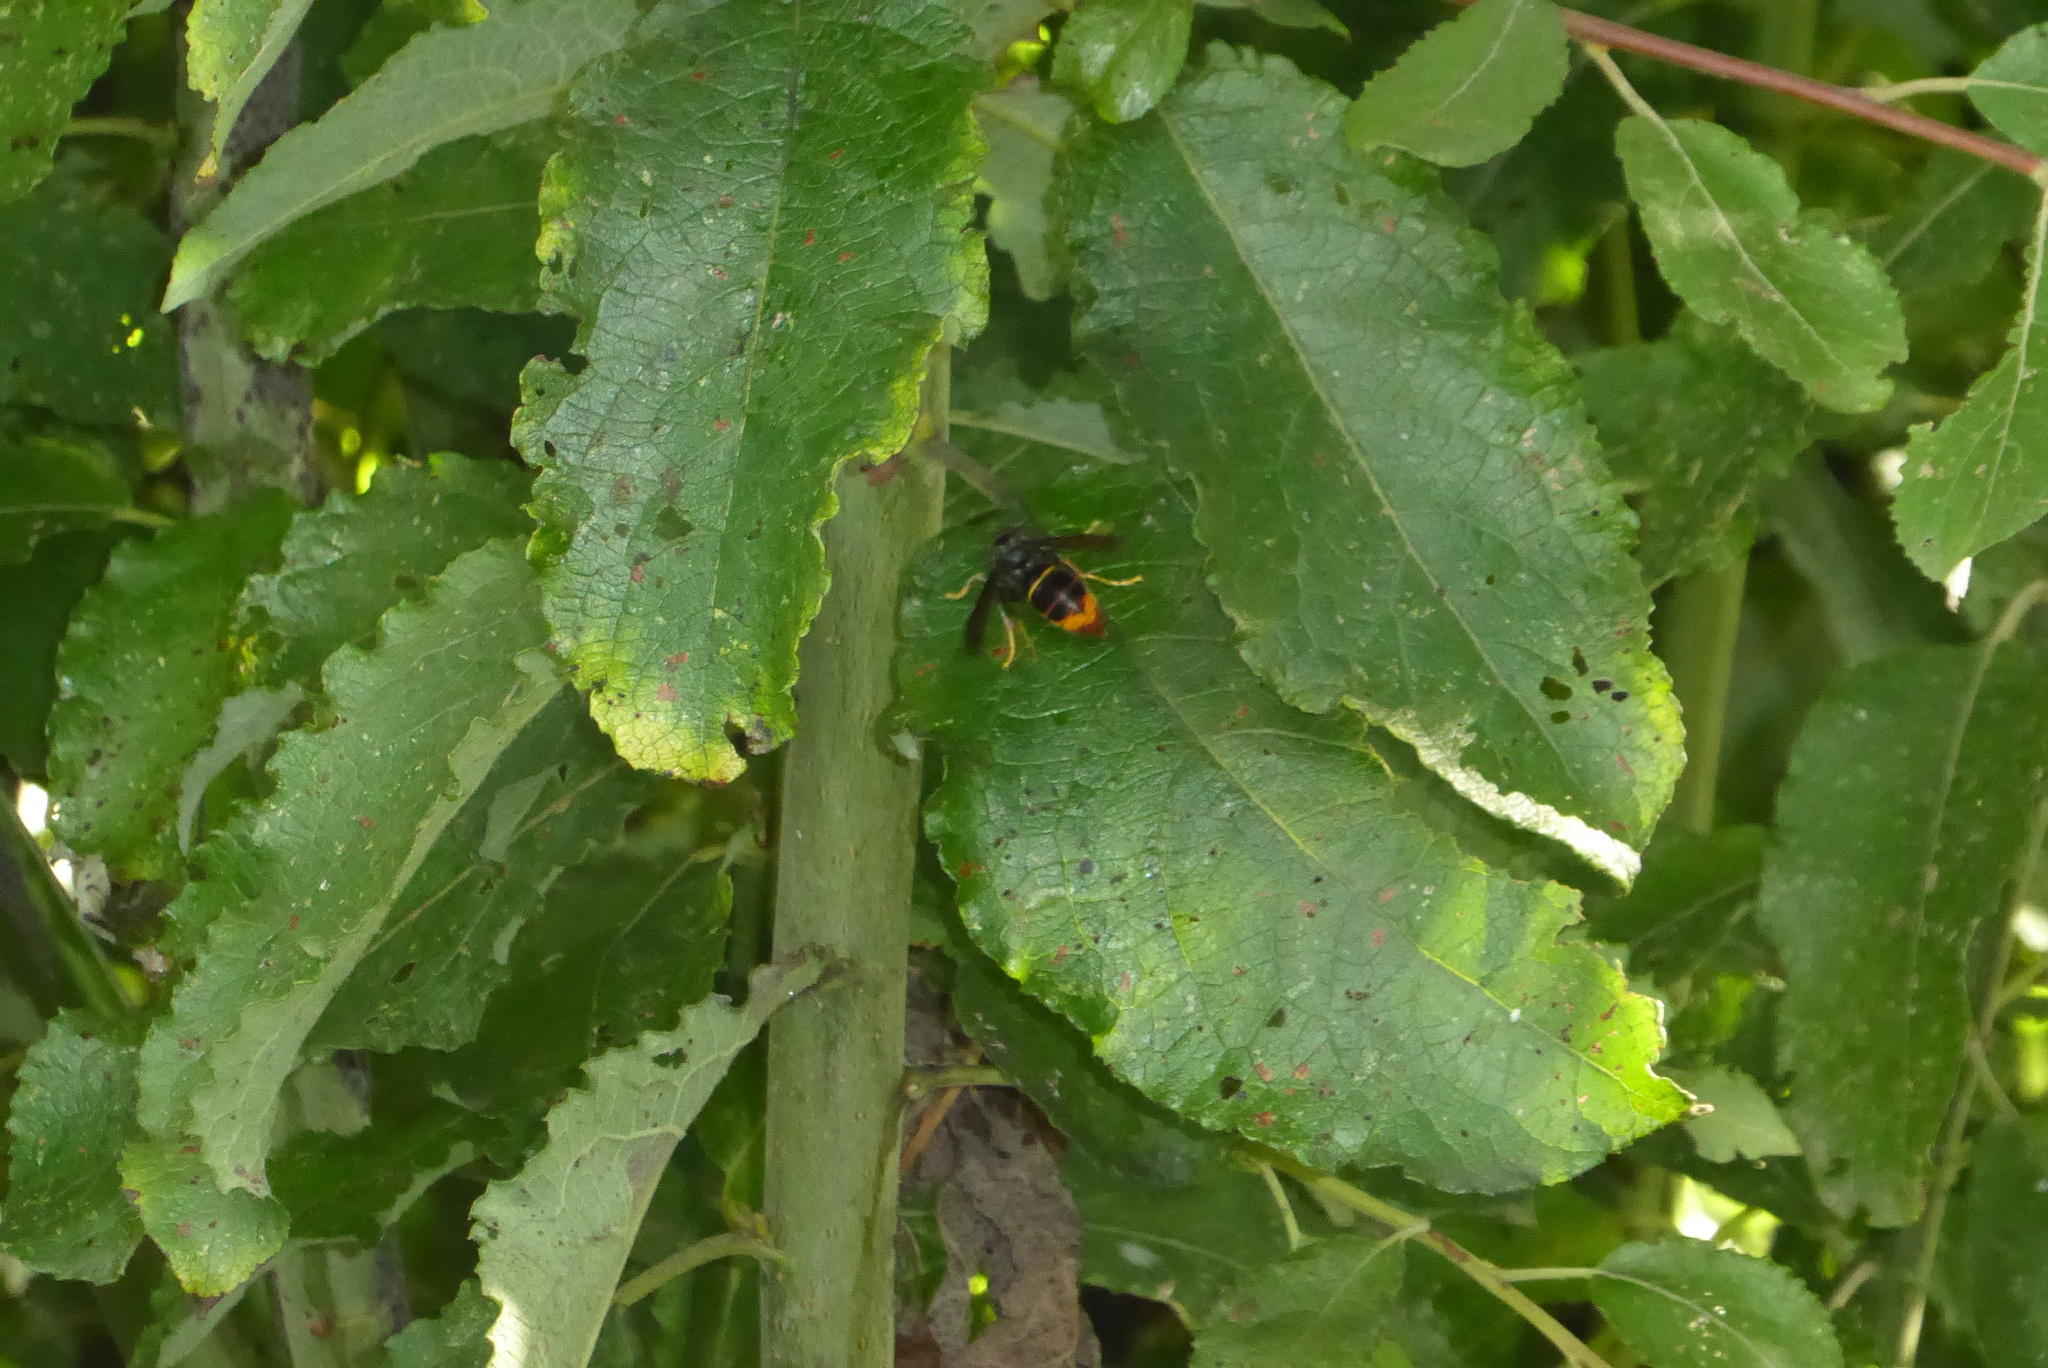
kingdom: Animalia
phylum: Arthropoda
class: Insecta
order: Hymenoptera
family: Vespidae
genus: Vespa
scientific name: Vespa velutina
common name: Asian hornet
